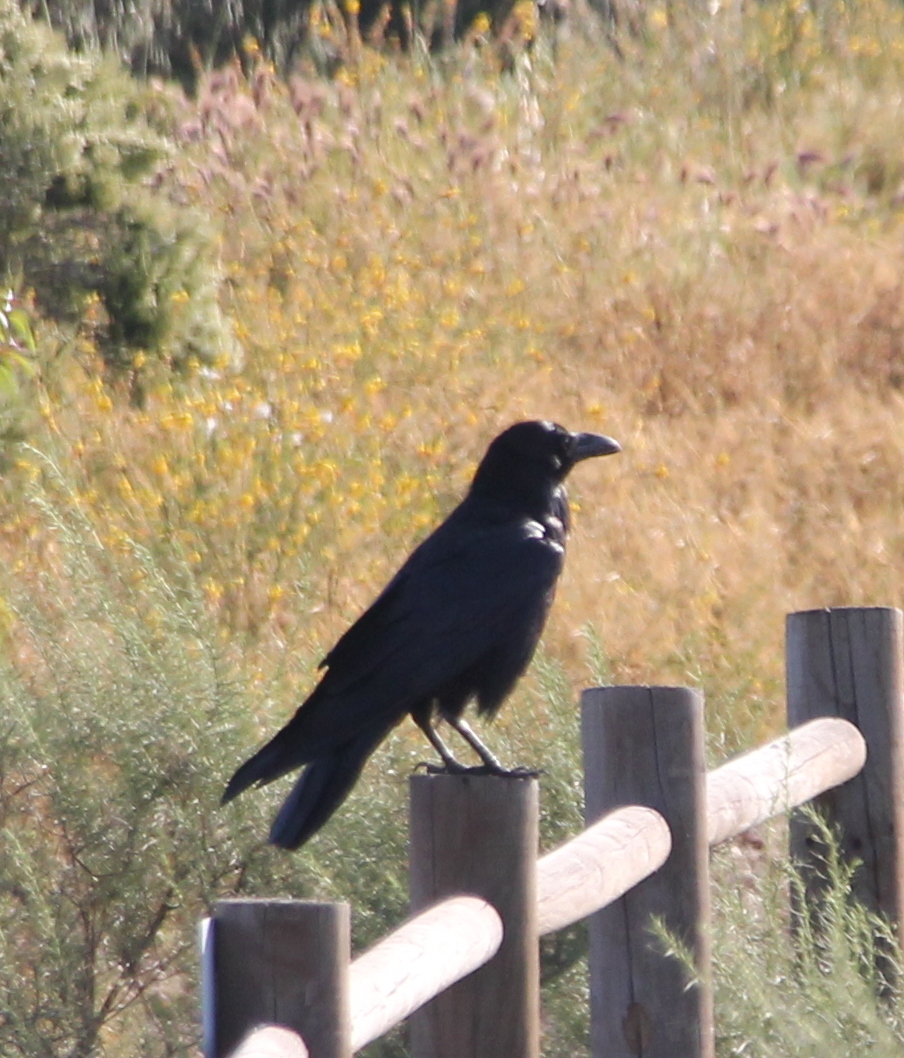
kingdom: Animalia
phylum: Chordata
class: Aves
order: Passeriformes
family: Corvidae
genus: Corvus
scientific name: Corvus corax
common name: Common raven
